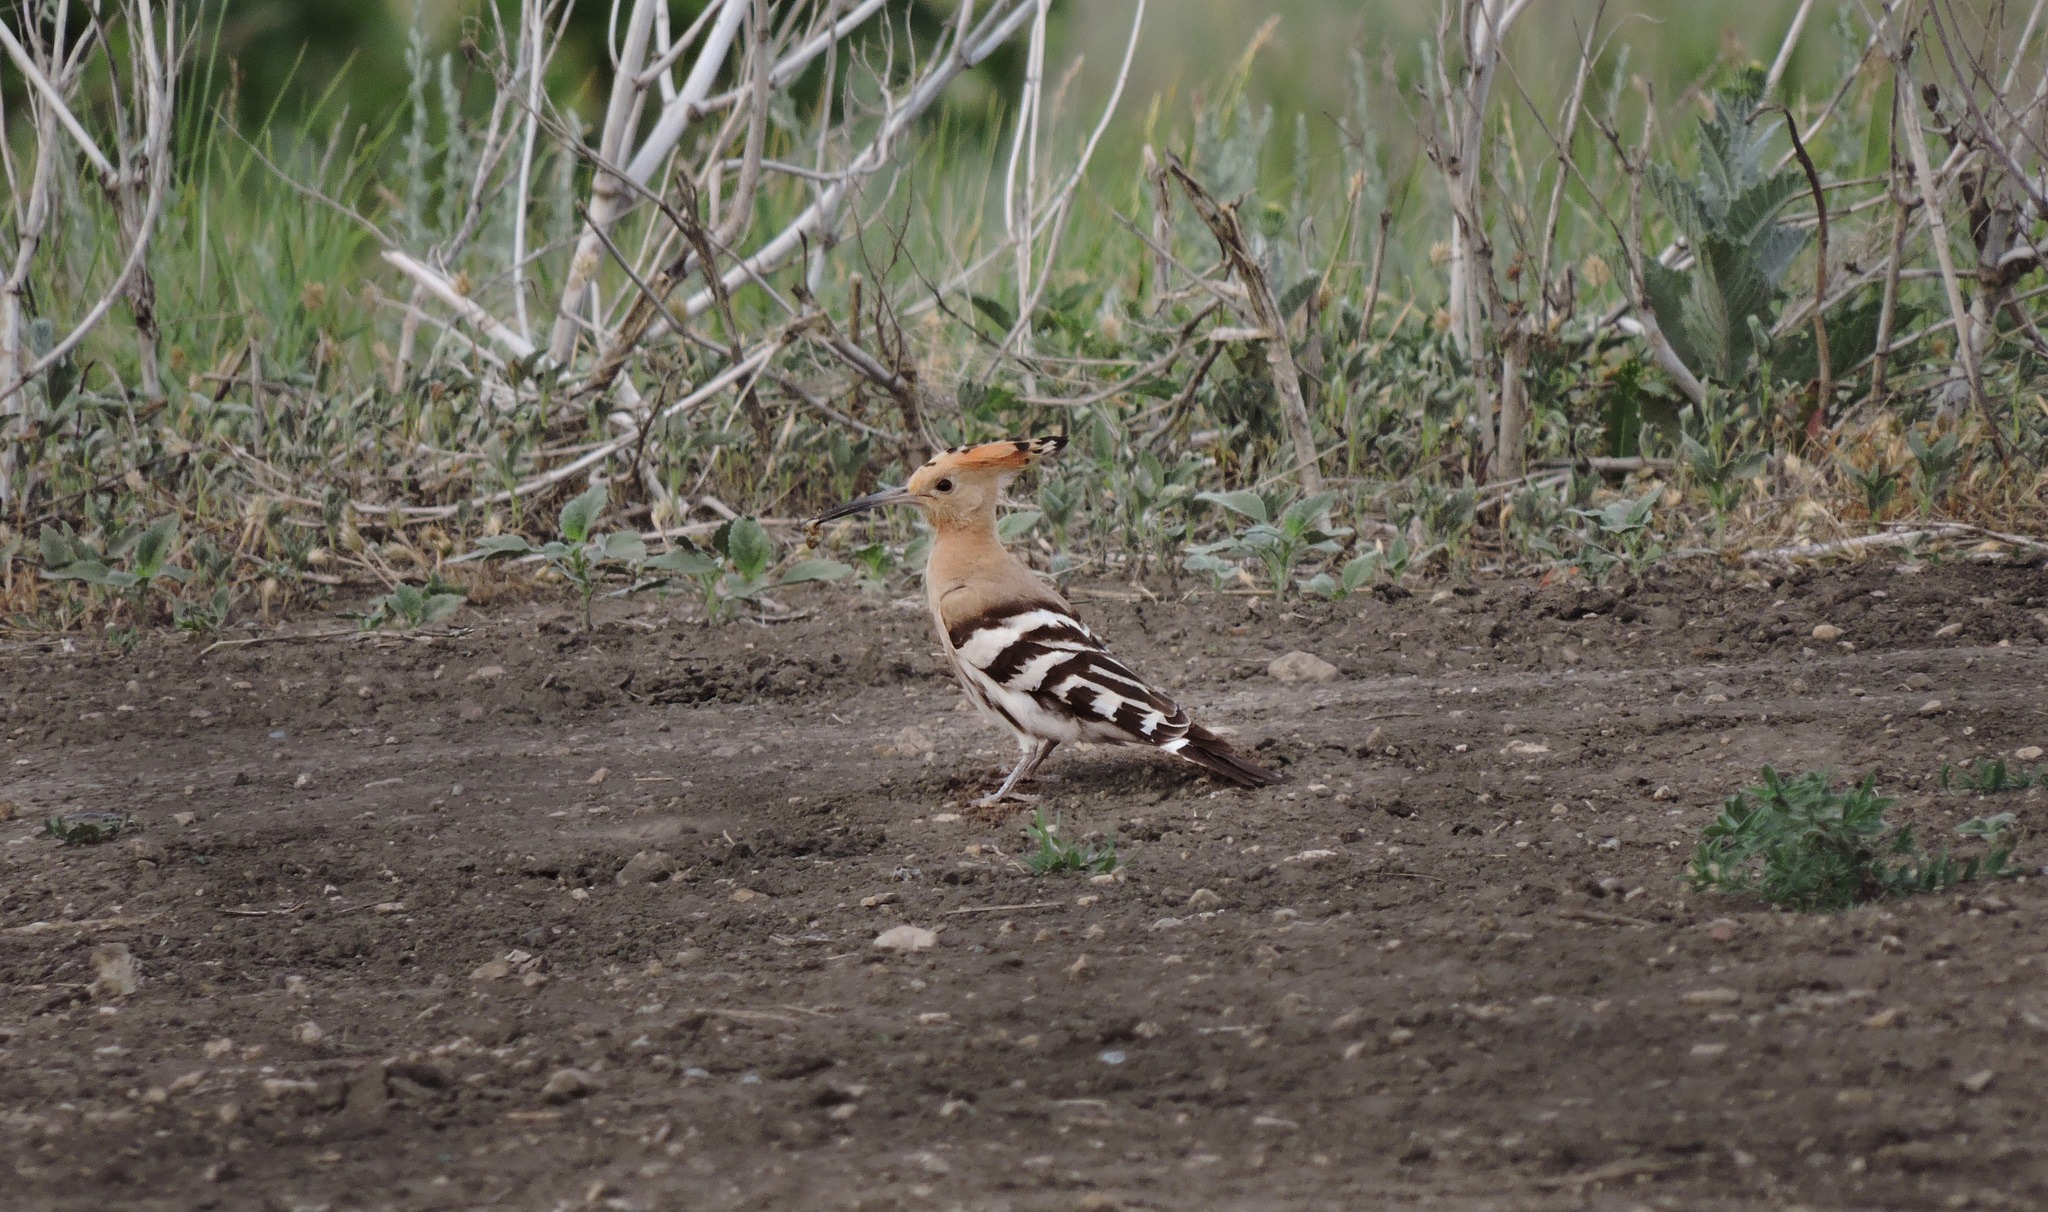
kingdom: Animalia
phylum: Chordata
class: Aves
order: Bucerotiformes
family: Upupidae
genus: Upupa
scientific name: Upupa epops
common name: Eurasian hoopoe
